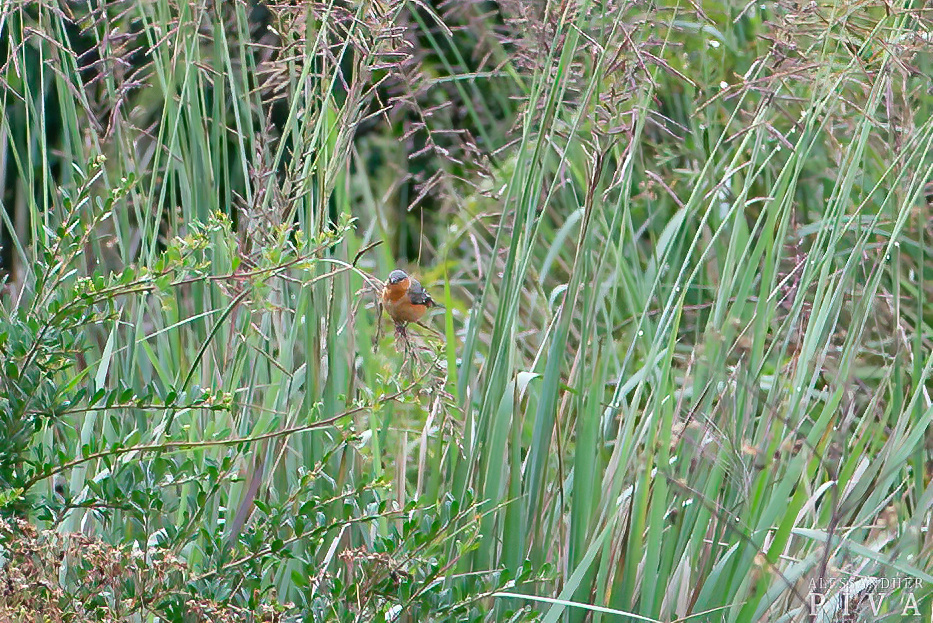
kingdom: Animalia
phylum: Chordata
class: Aves
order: Passeriformes
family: Thraupidae
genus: Sporophila
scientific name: Sporophila hypoxantha
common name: Tawny-bellied seedeater
